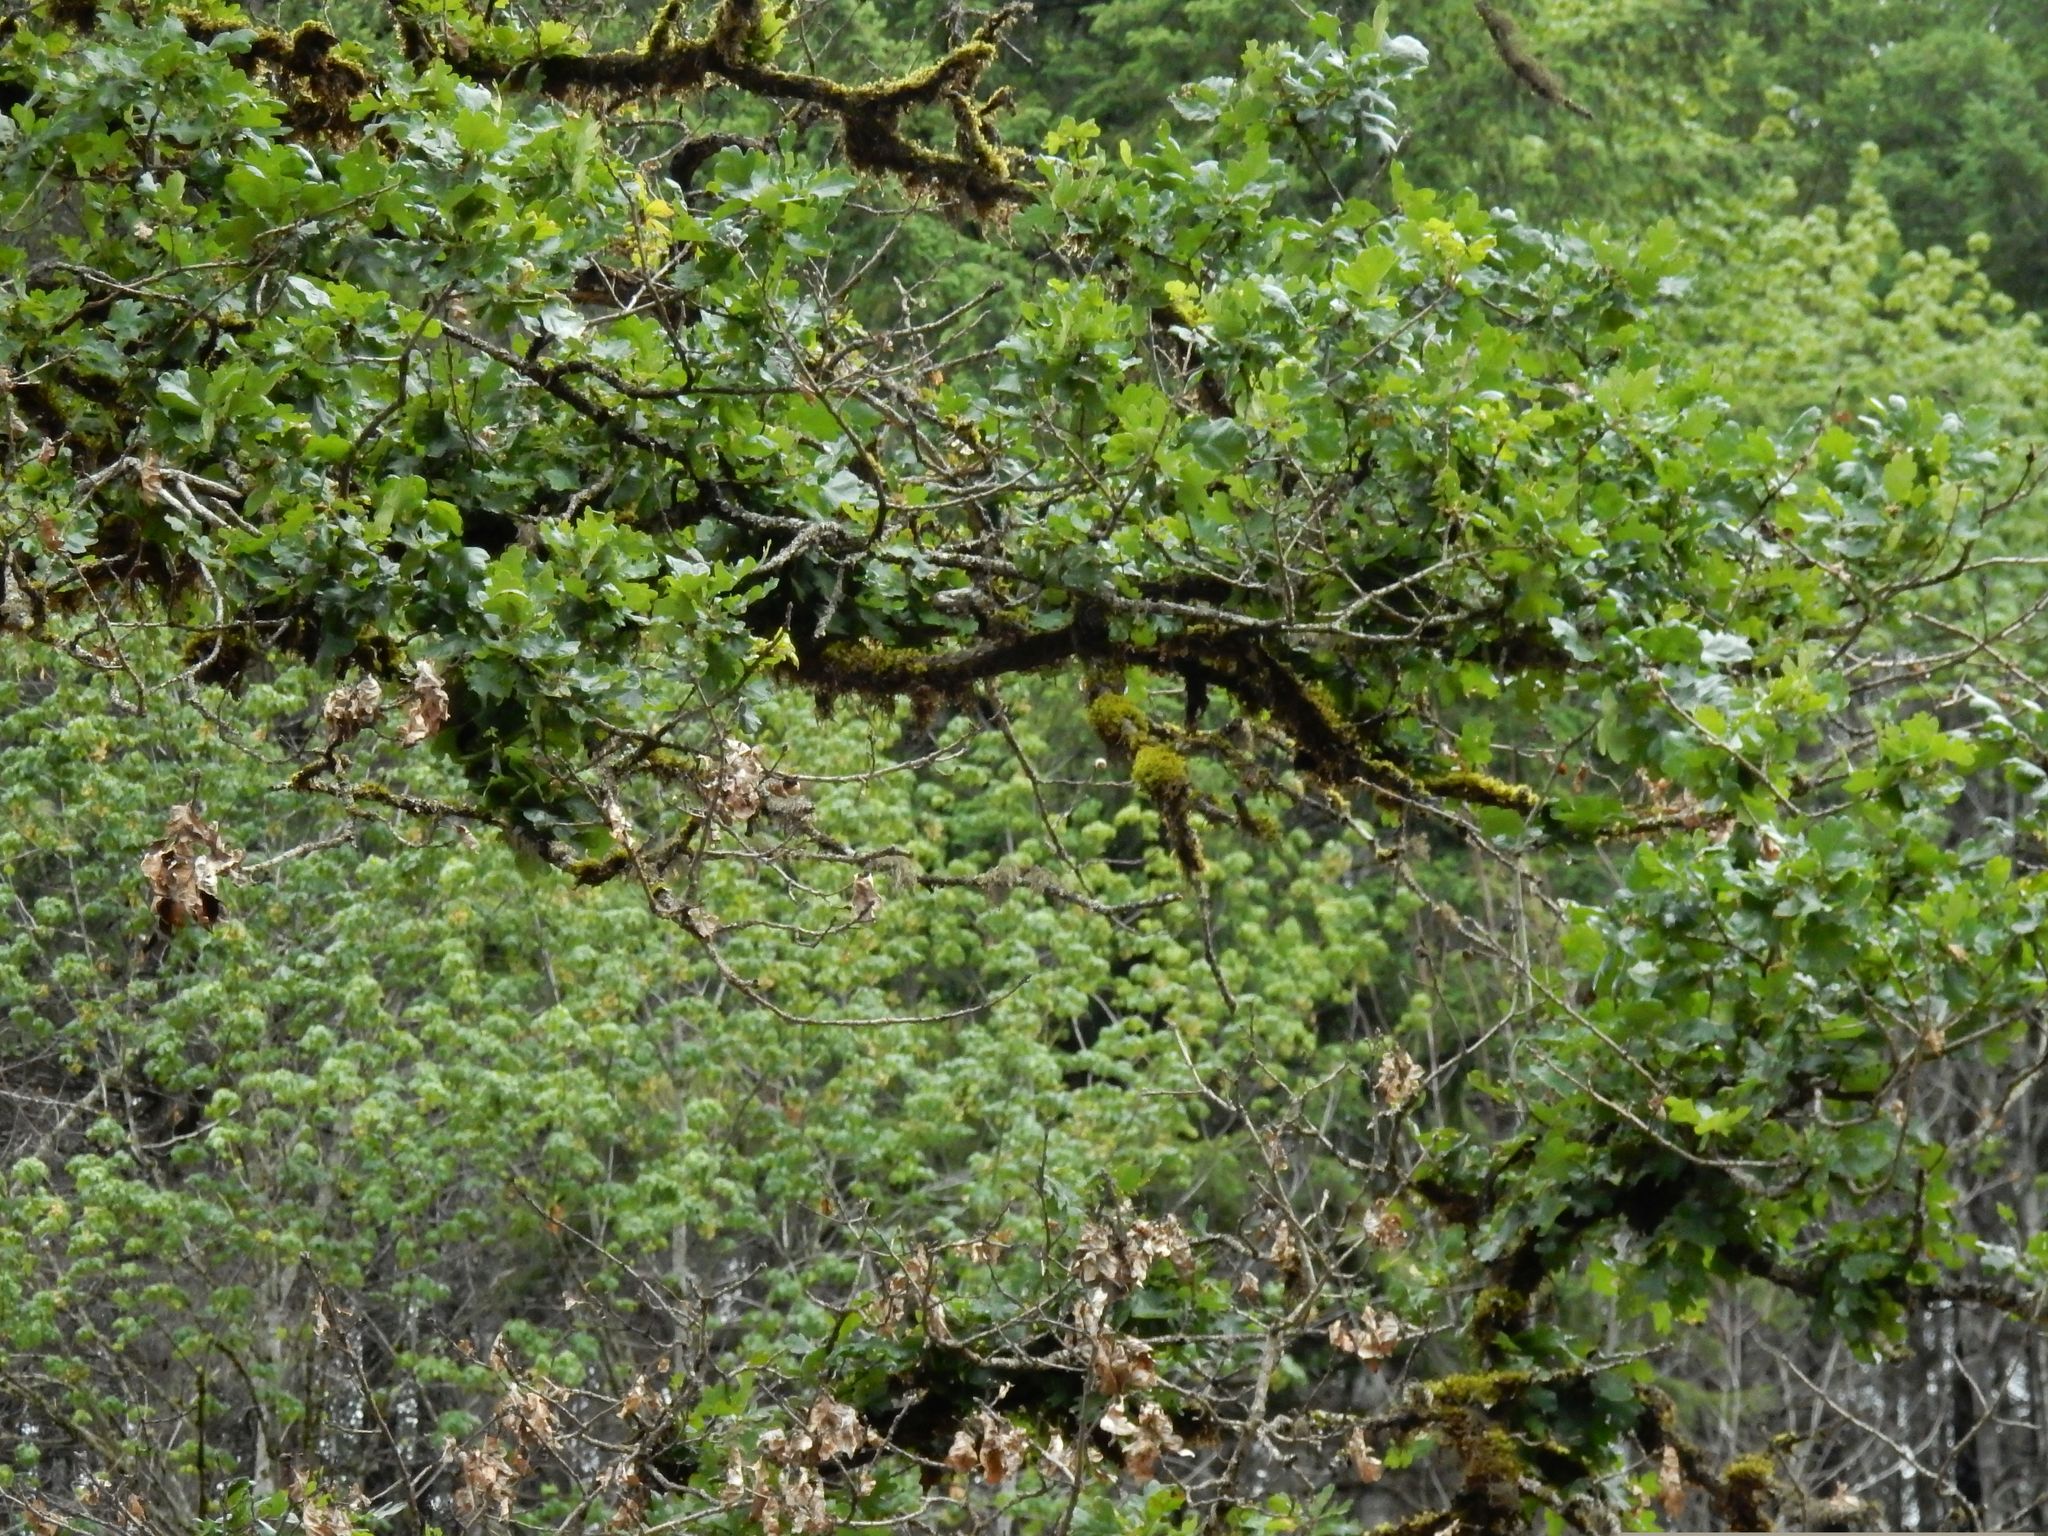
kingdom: Plantae
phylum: Tracheophyta
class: Magnoliopsida
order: Fagales
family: Fagaceae
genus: Quercus
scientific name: Quercus garryana
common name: Garry oak
